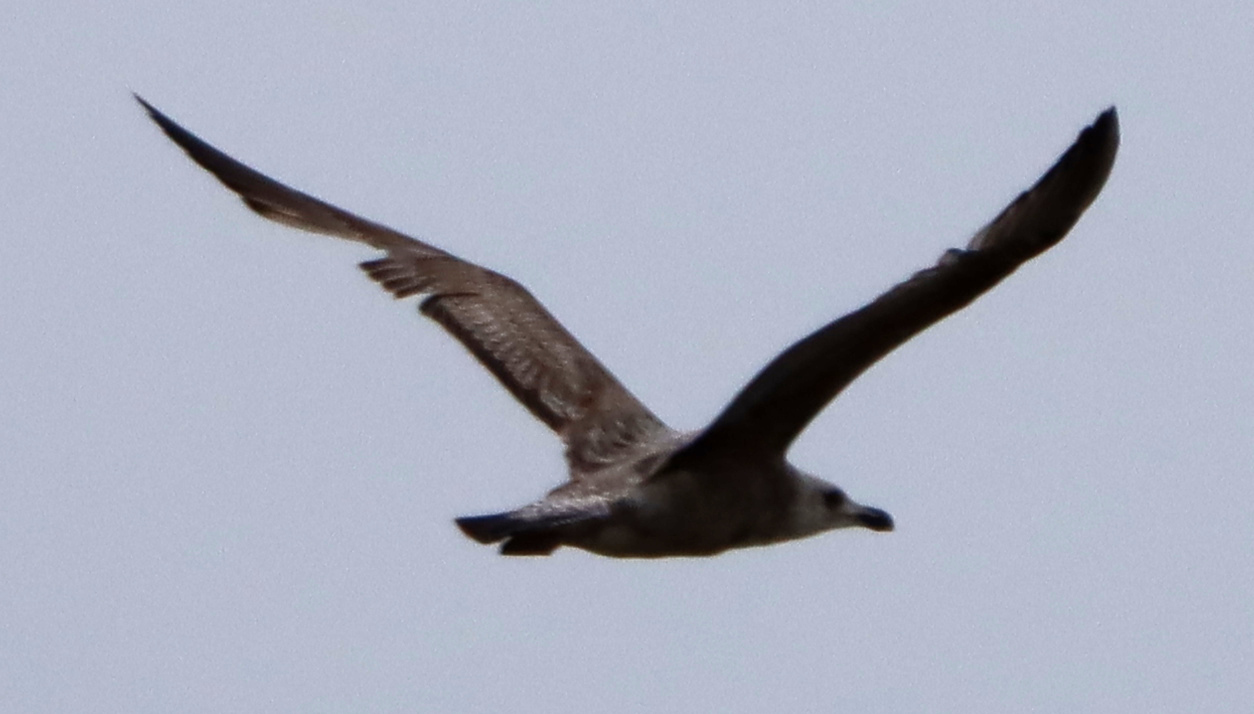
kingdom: Animalia
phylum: Chordata
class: Aves
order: Charadriiformes
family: Laridae
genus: Larus
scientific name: Larus argentatus
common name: Herring gull
